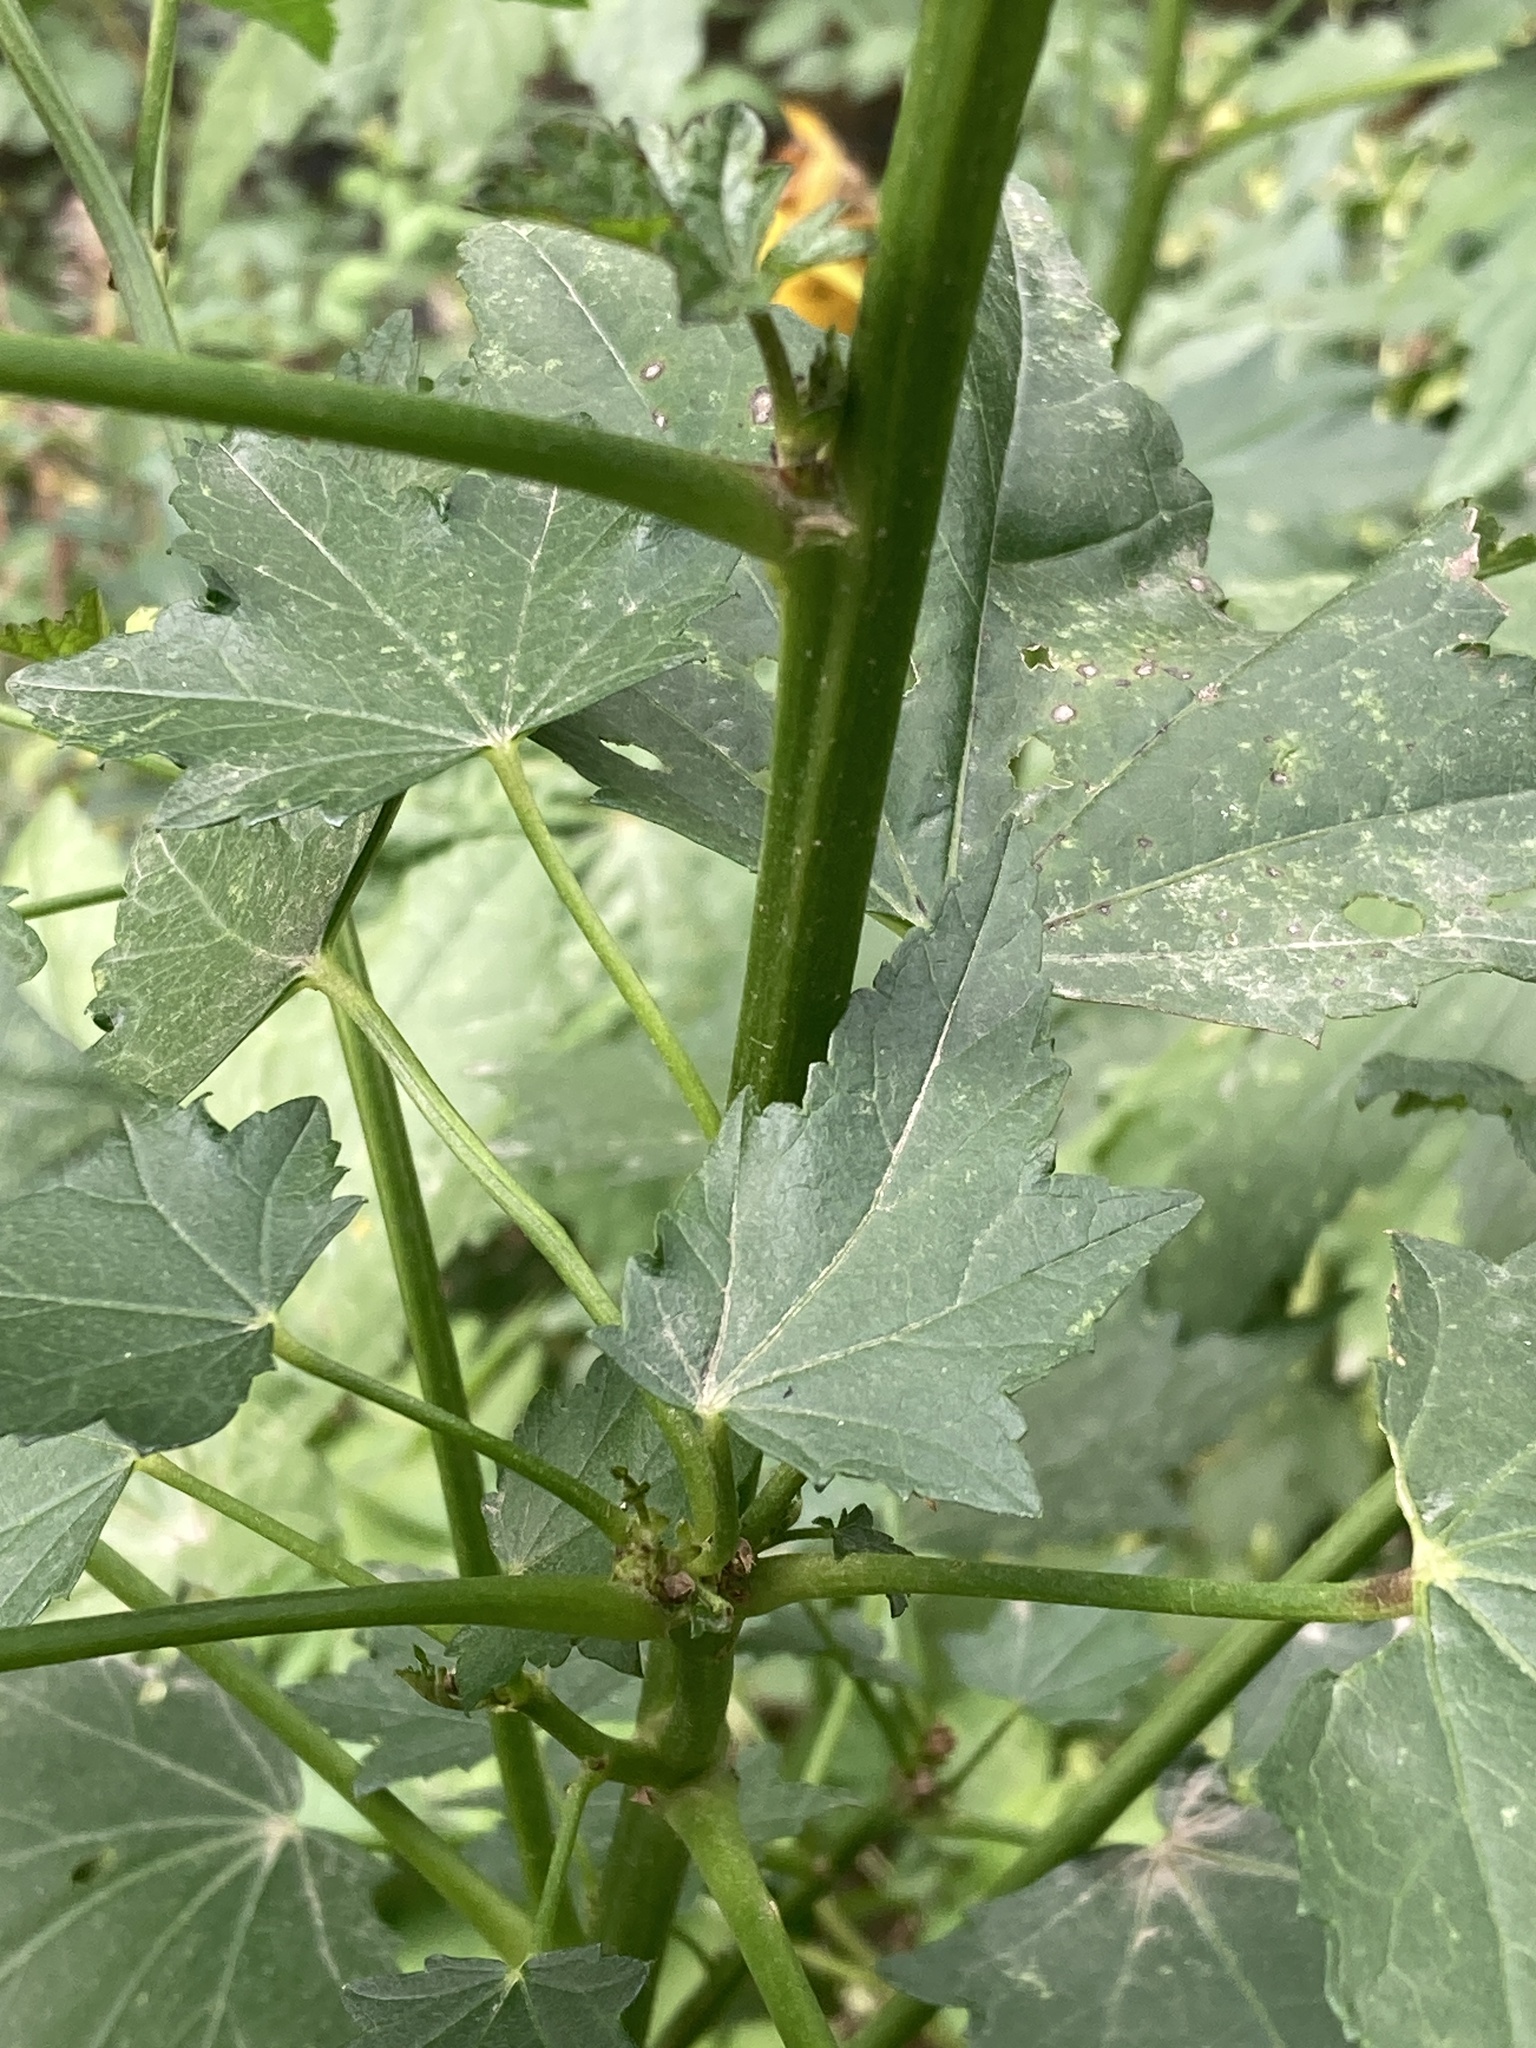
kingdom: Plantae
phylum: Tracheophyta
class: Magnoliopsida
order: Malvales
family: Malvaceae
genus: Iliamna
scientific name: Iliamna rivularis
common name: Wild hollyhock
